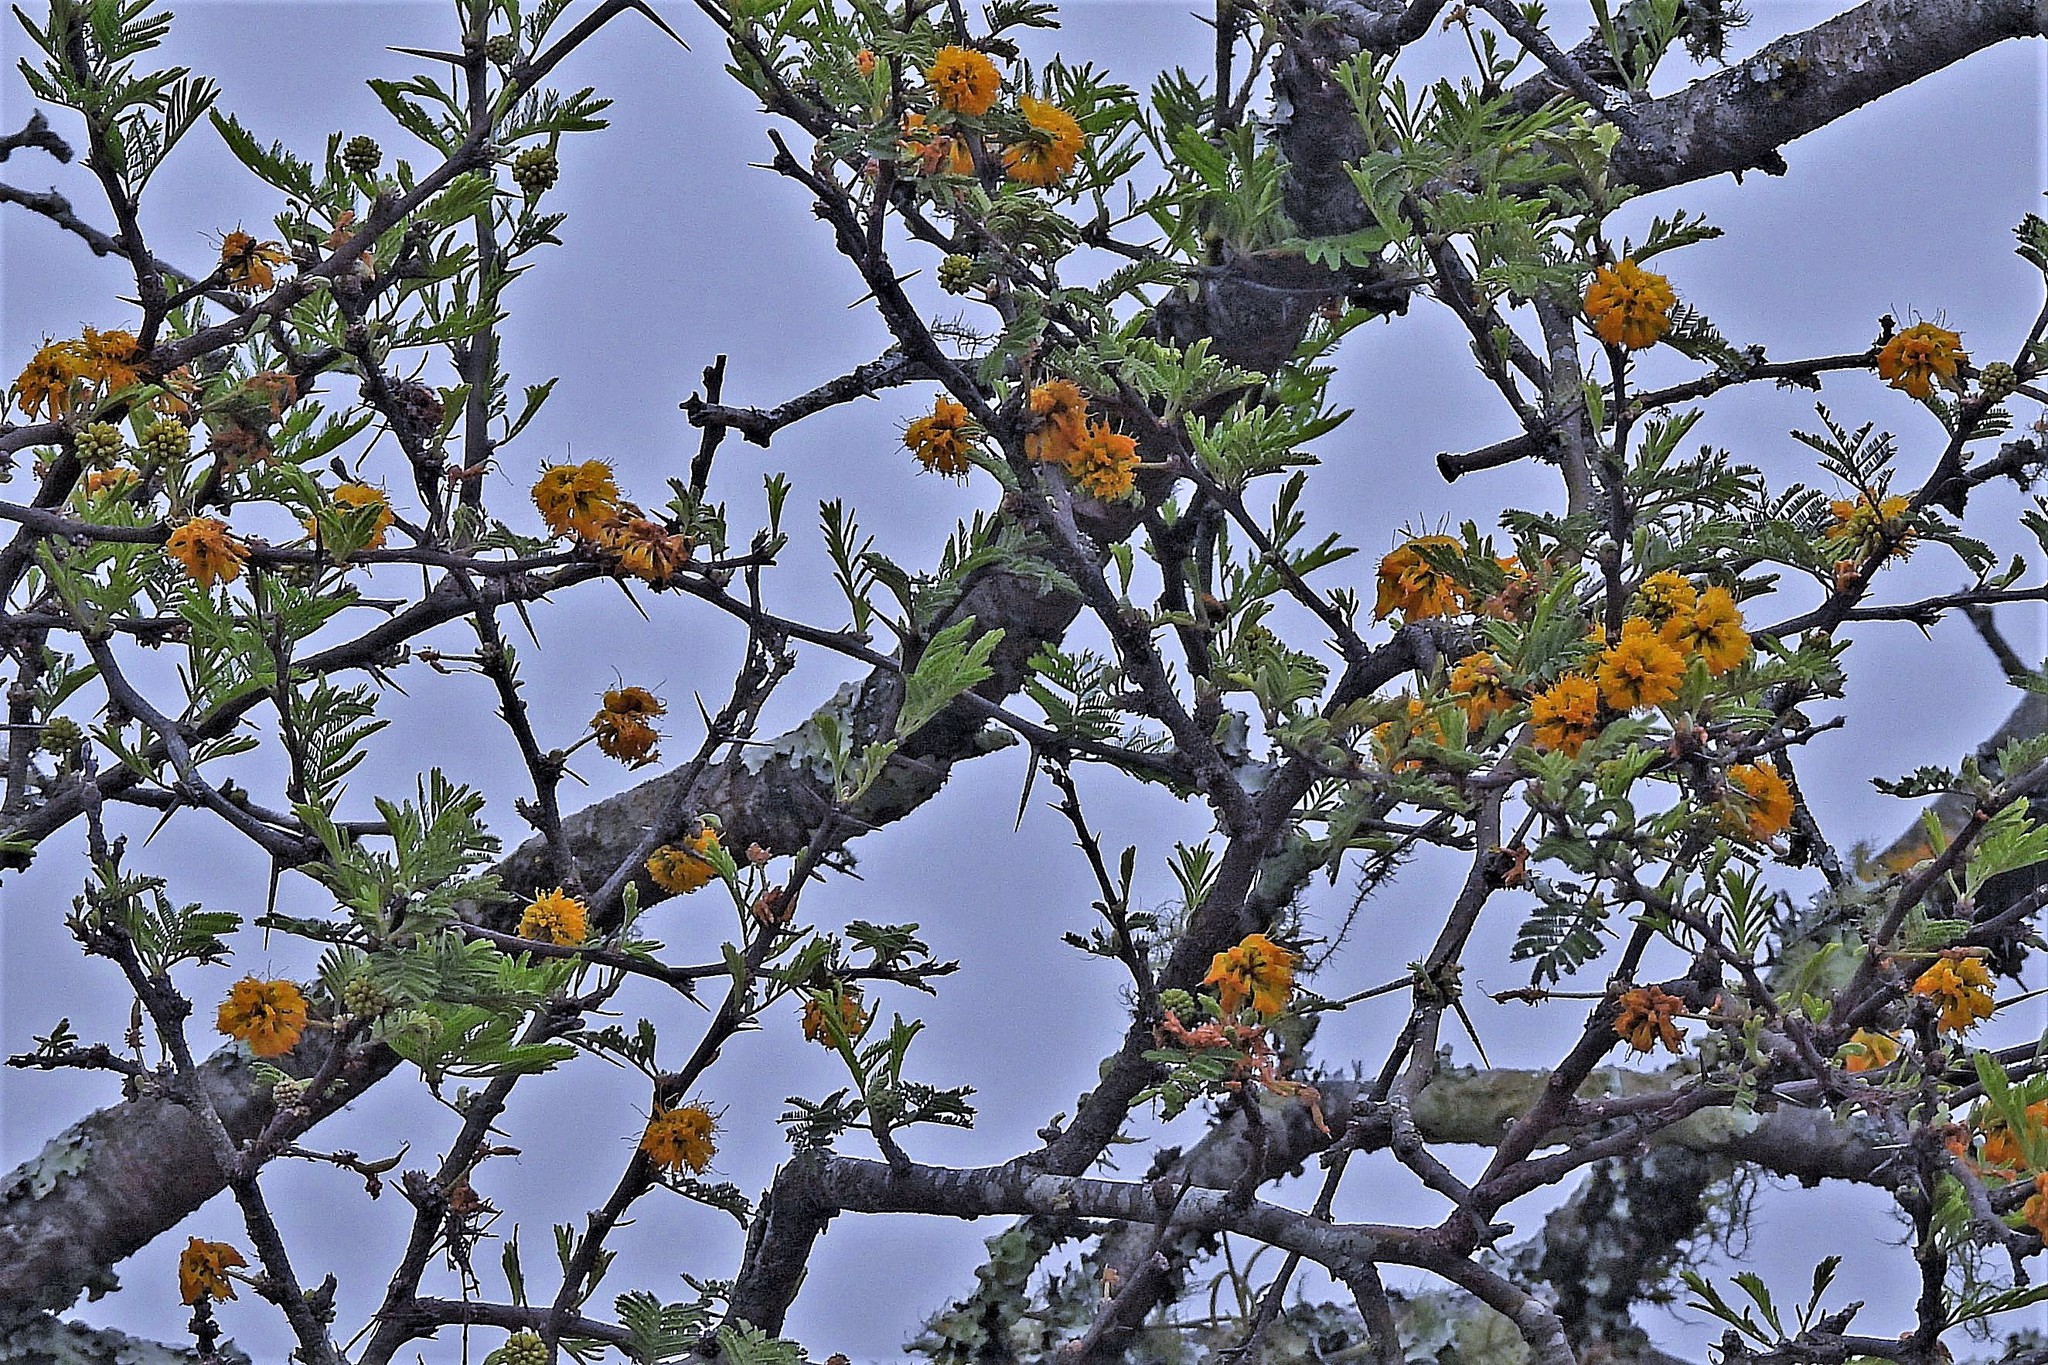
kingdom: Plantae
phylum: Tracheophyta
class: Magnoliopsida
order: Fabales
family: Fabaceae
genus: Vachellia
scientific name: Vachellia caven
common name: Roman cassie
